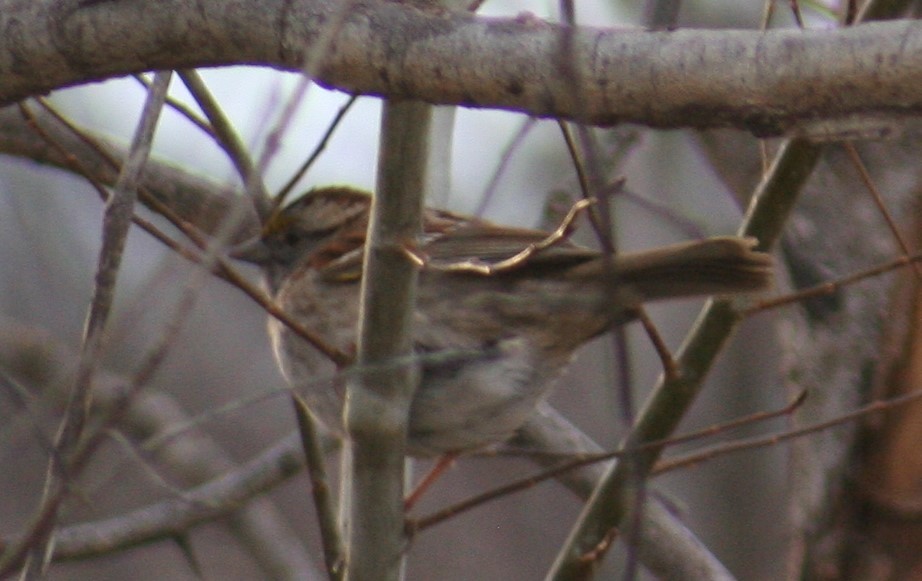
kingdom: Animalia
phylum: Chordata
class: Aves
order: Passeriformes
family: Passerellidae
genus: Zonotrichia
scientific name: Zonotrichia albicollis
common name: White-throated sparrow
